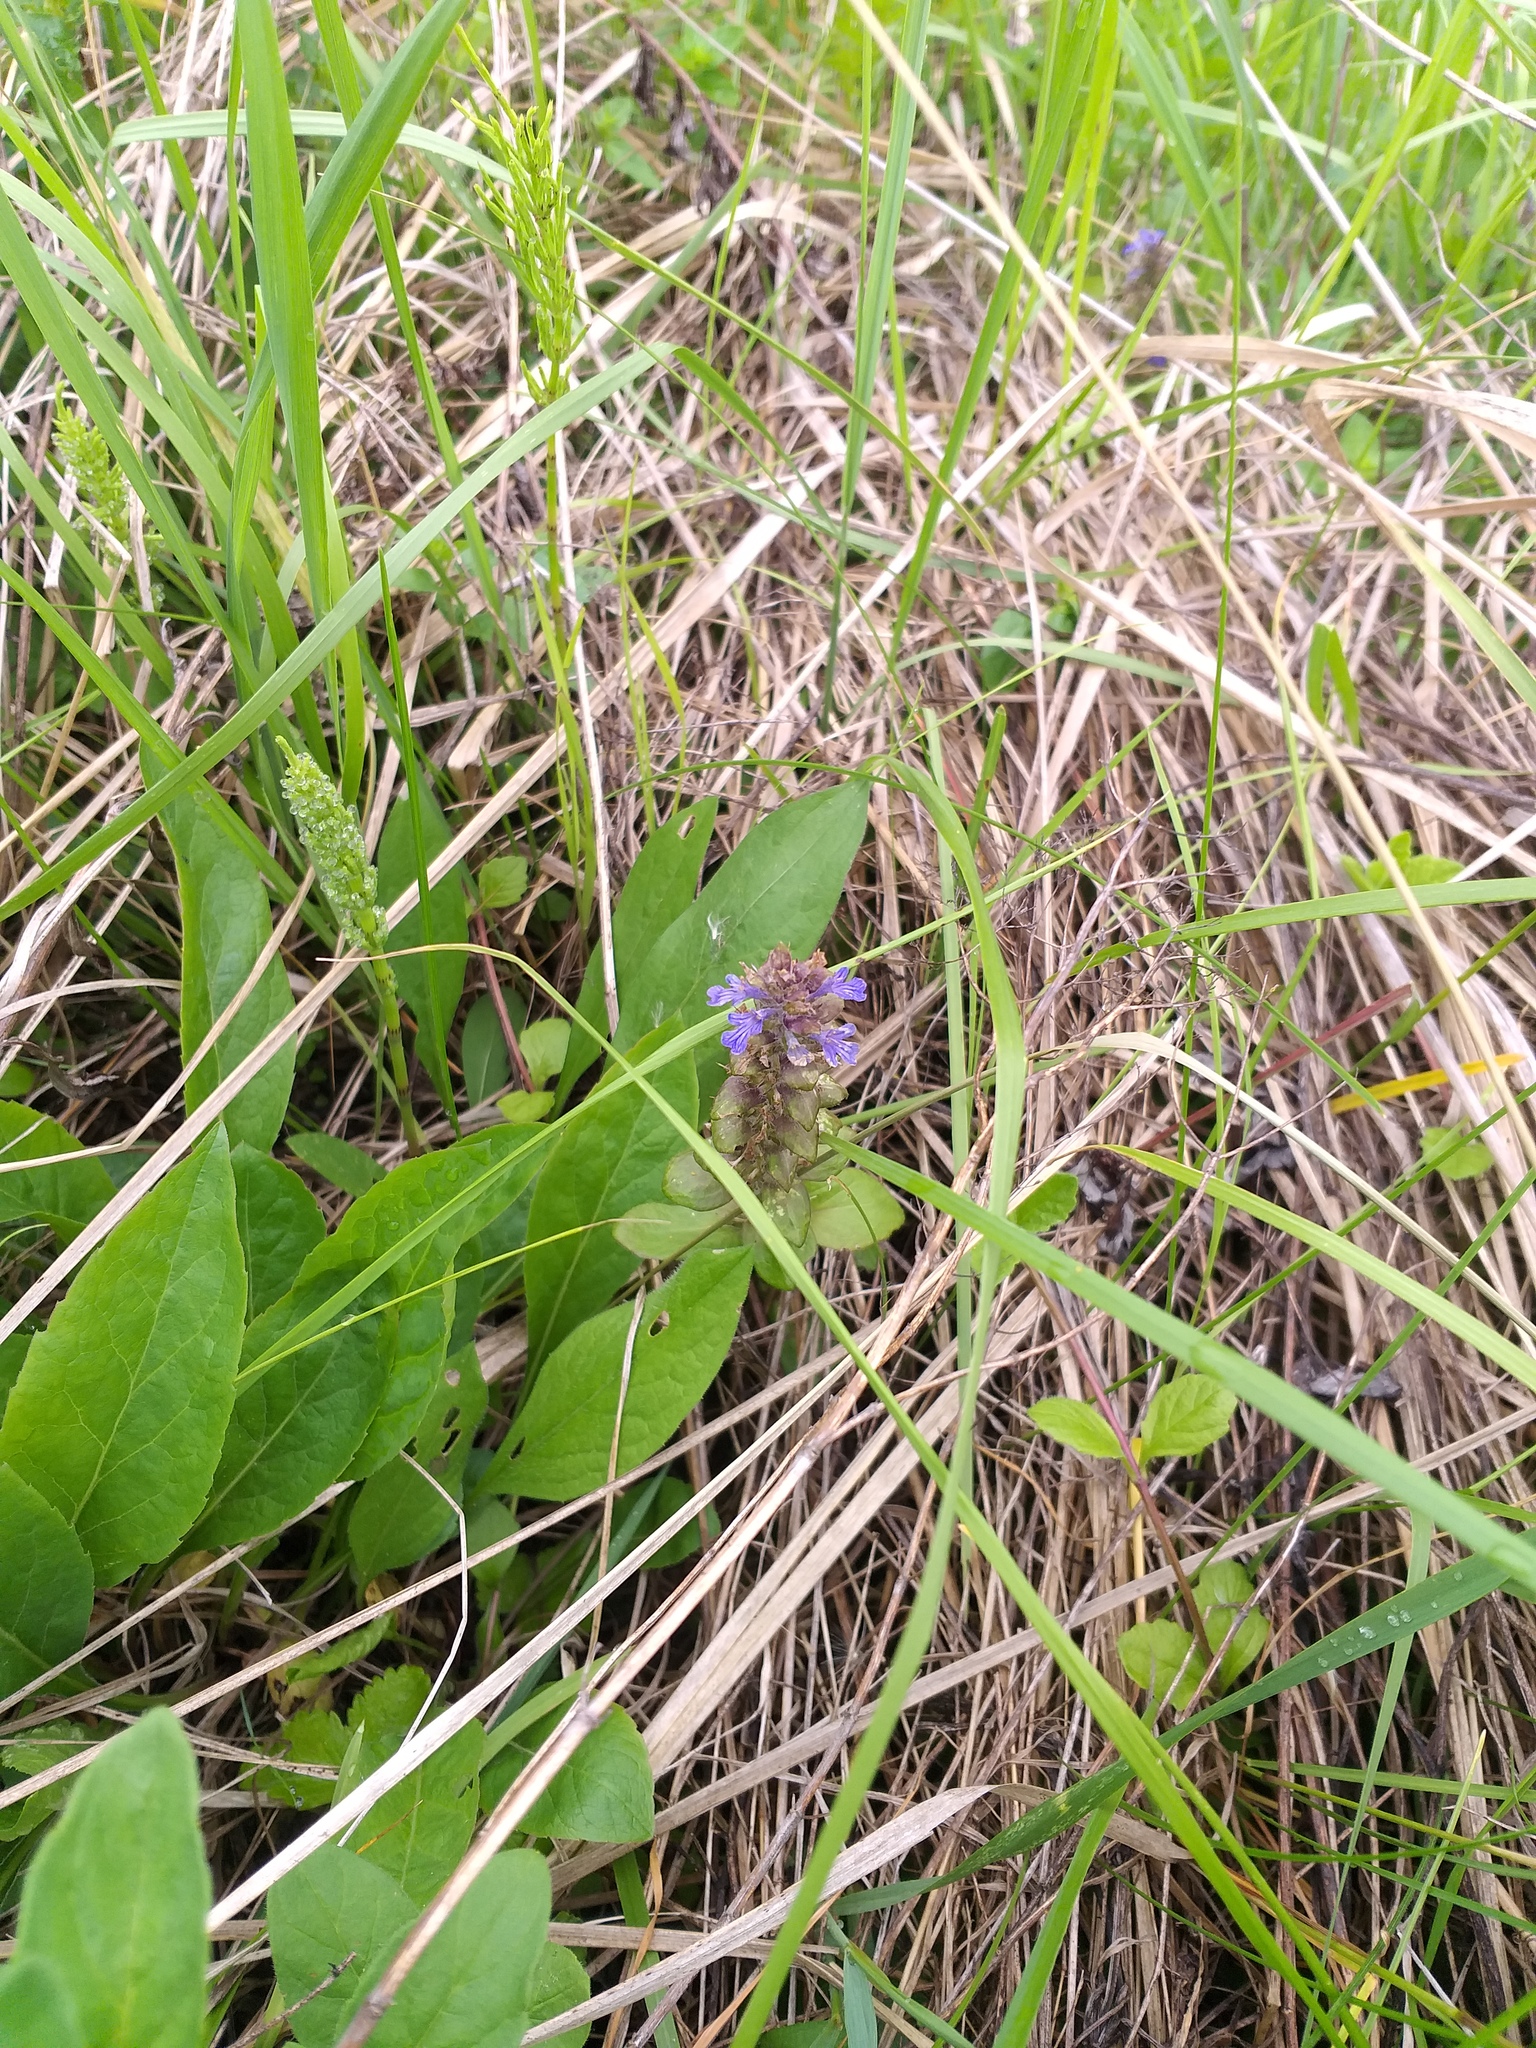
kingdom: Plantae
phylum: Tracheophyta
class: Magnoliopsida
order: Lamiales
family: Lamiaceae
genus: Ajuga
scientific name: Ajuga reptans
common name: Bugle
